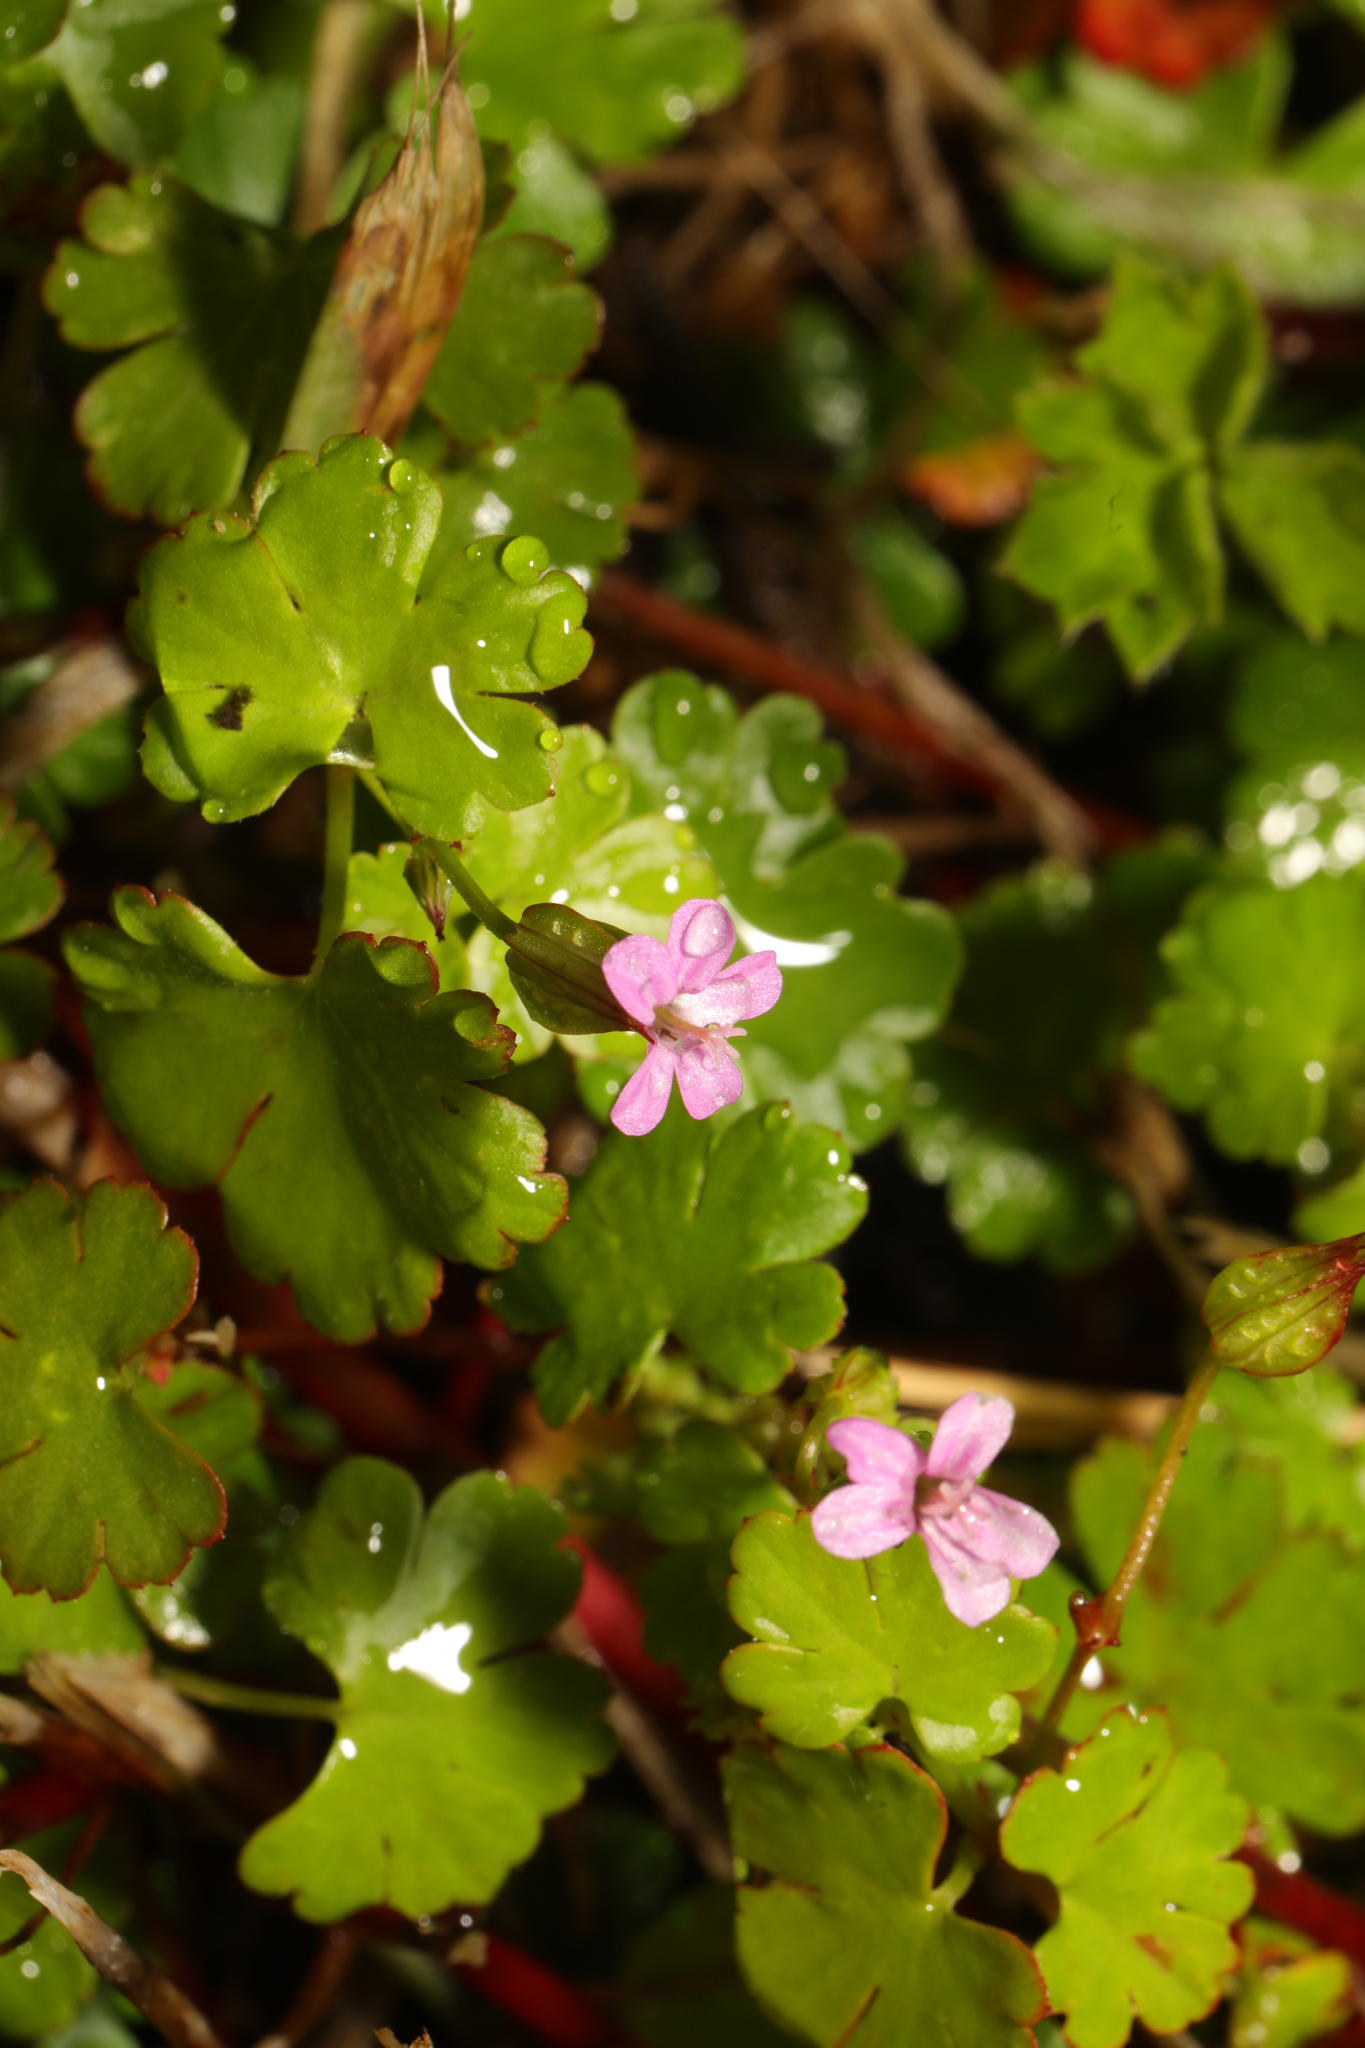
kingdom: Plantae
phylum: Tracheophyta
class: Magnoliopsida
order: Geraniales
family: Geraniaceae
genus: Geranium
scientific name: Geranium lucidum
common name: Shining crane's-bill
